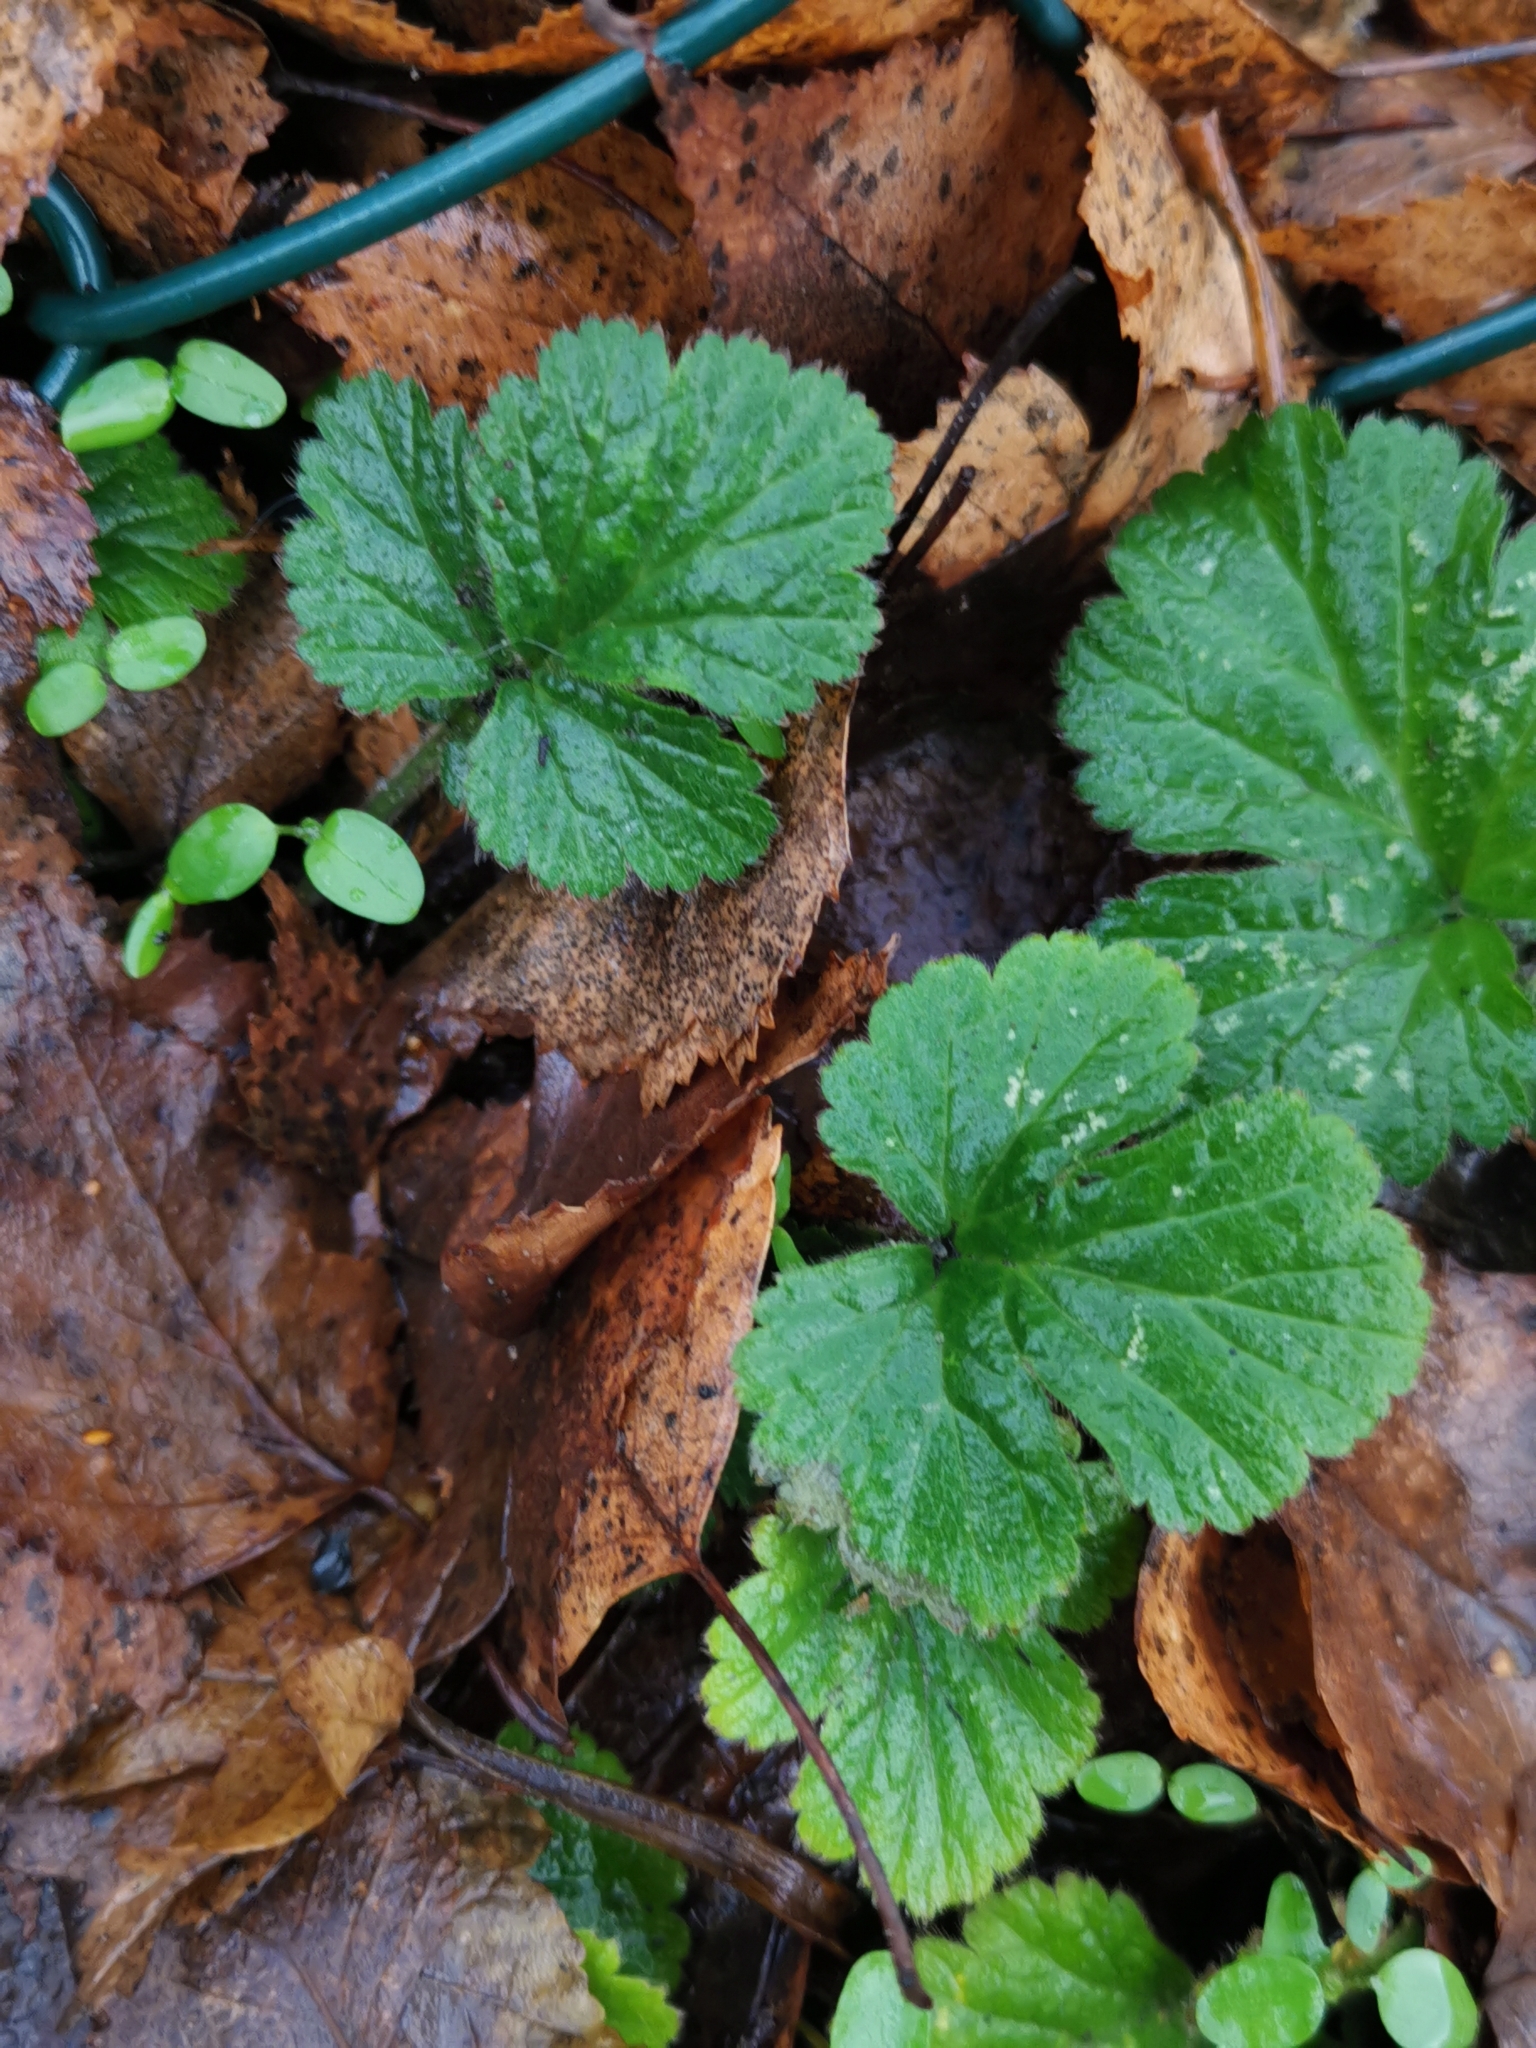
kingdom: Plantae
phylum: Tracheophyta
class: Magnoliopsida
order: Rosales
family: Rosaceae
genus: Geum
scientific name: Geum urbanum
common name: Wood avens
